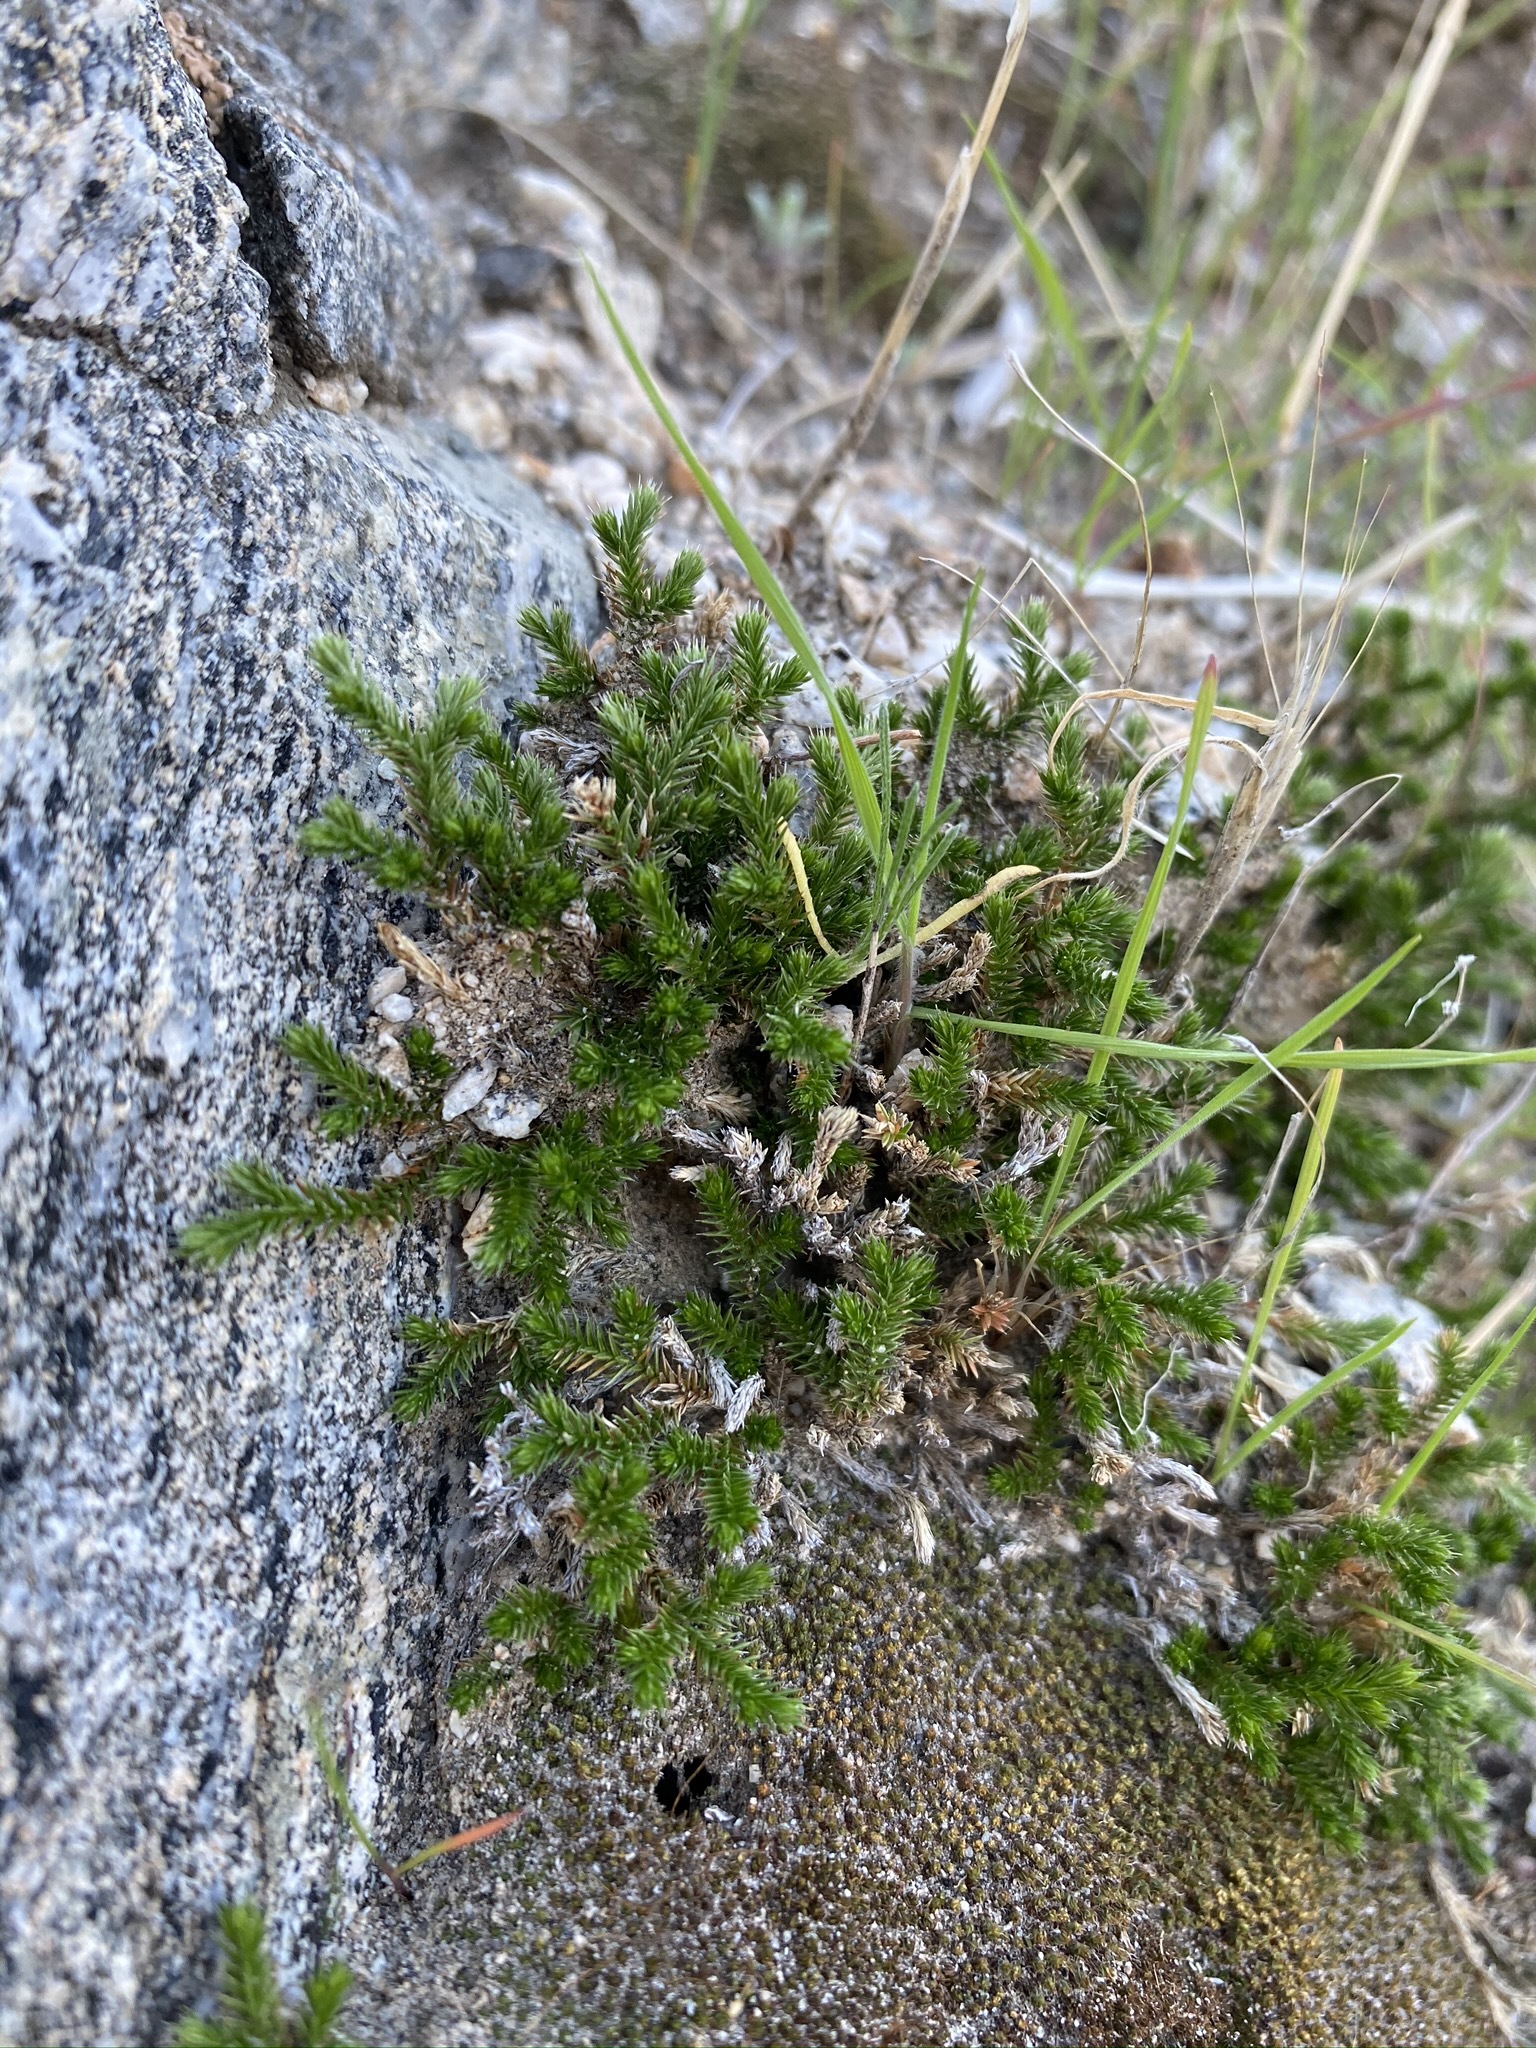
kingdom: Plantae
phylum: Tracheophyta
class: Lycopodiopsida
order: Selaginellales
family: Selaginellaceae
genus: Selaginella
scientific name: Selaginella bigelovii
